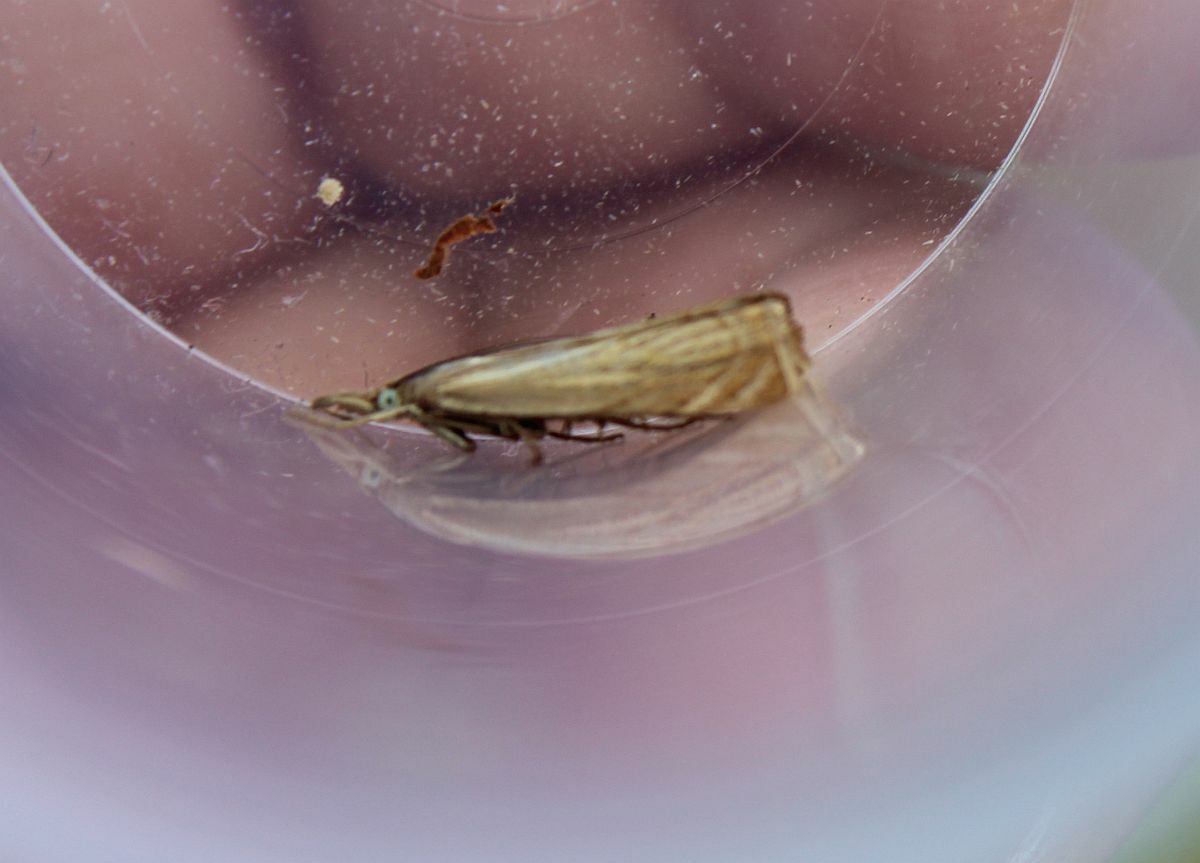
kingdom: Animalia
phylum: Arthropoda
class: Insecta
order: Lepidoptera
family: Crambidae
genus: Chrysoteuchia
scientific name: Chrysoteuchia culmella
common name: Garden grass-veneer
